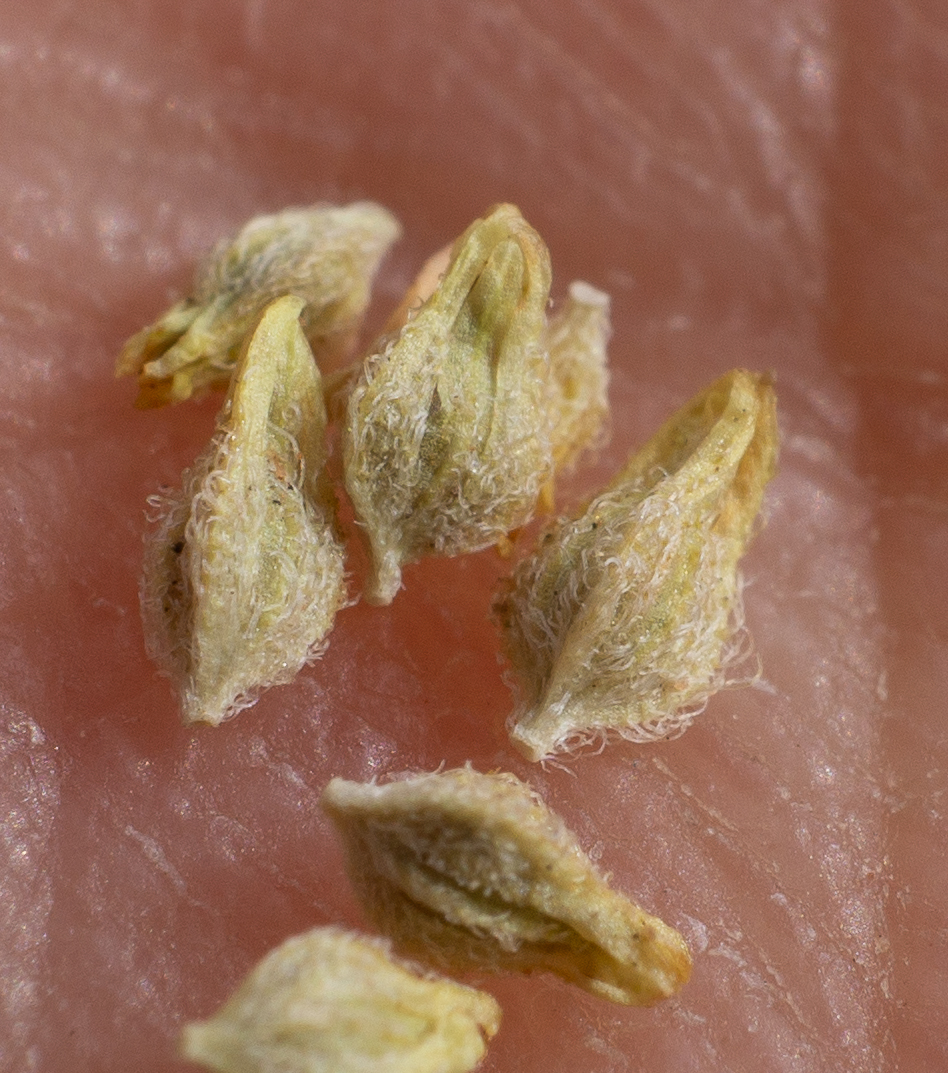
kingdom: Plantae
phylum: Tracheophyta
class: Magnoliopsida
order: Caryophyllales
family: Polygonaceae
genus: Stenogonum
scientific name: Stenogonum salsuginosum
